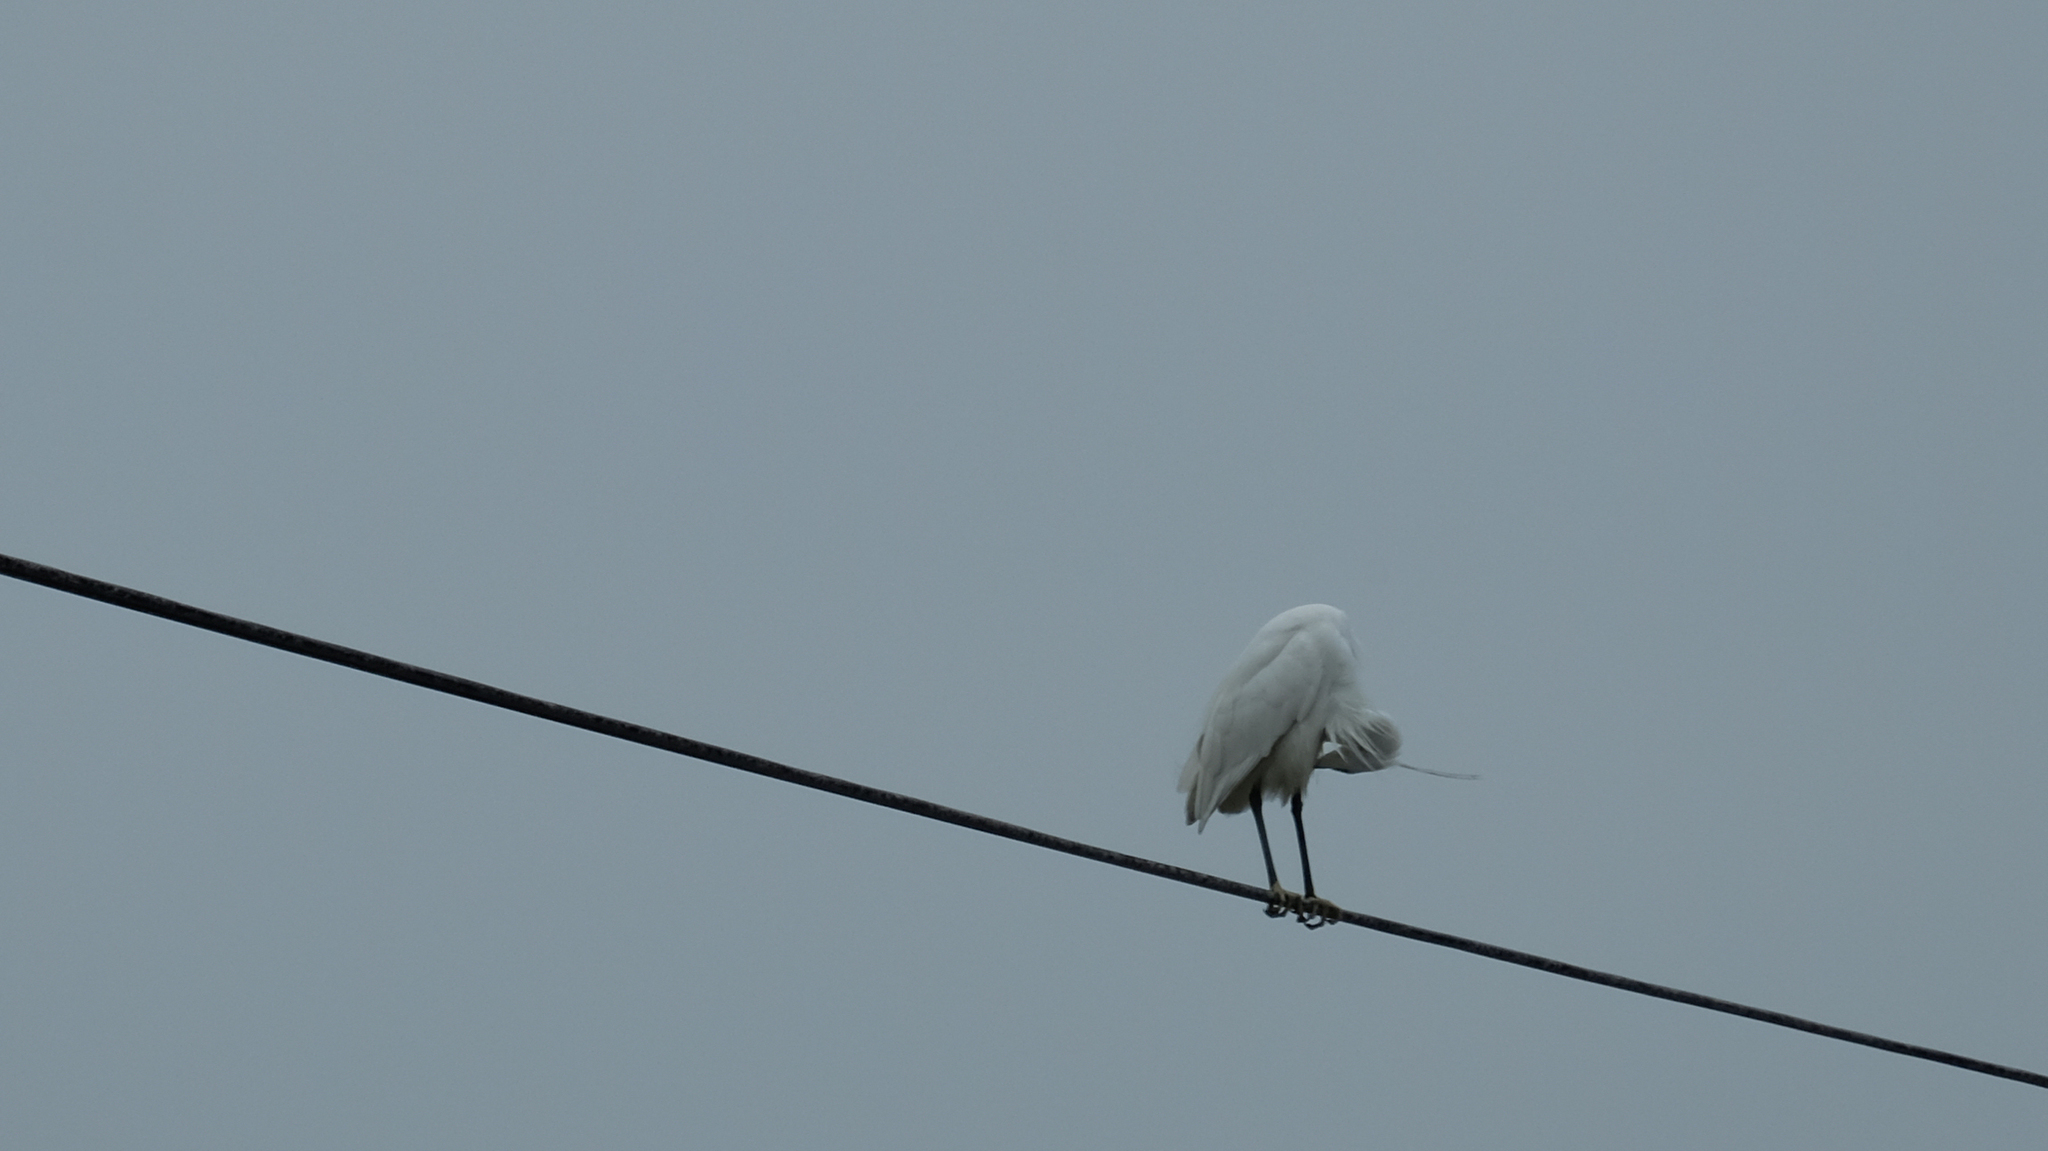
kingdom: Animalia
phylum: Chordata
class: Aves
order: Pelecaniformes
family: Ardeidae
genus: Egretta
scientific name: Egretta garzetta
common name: Little egret
